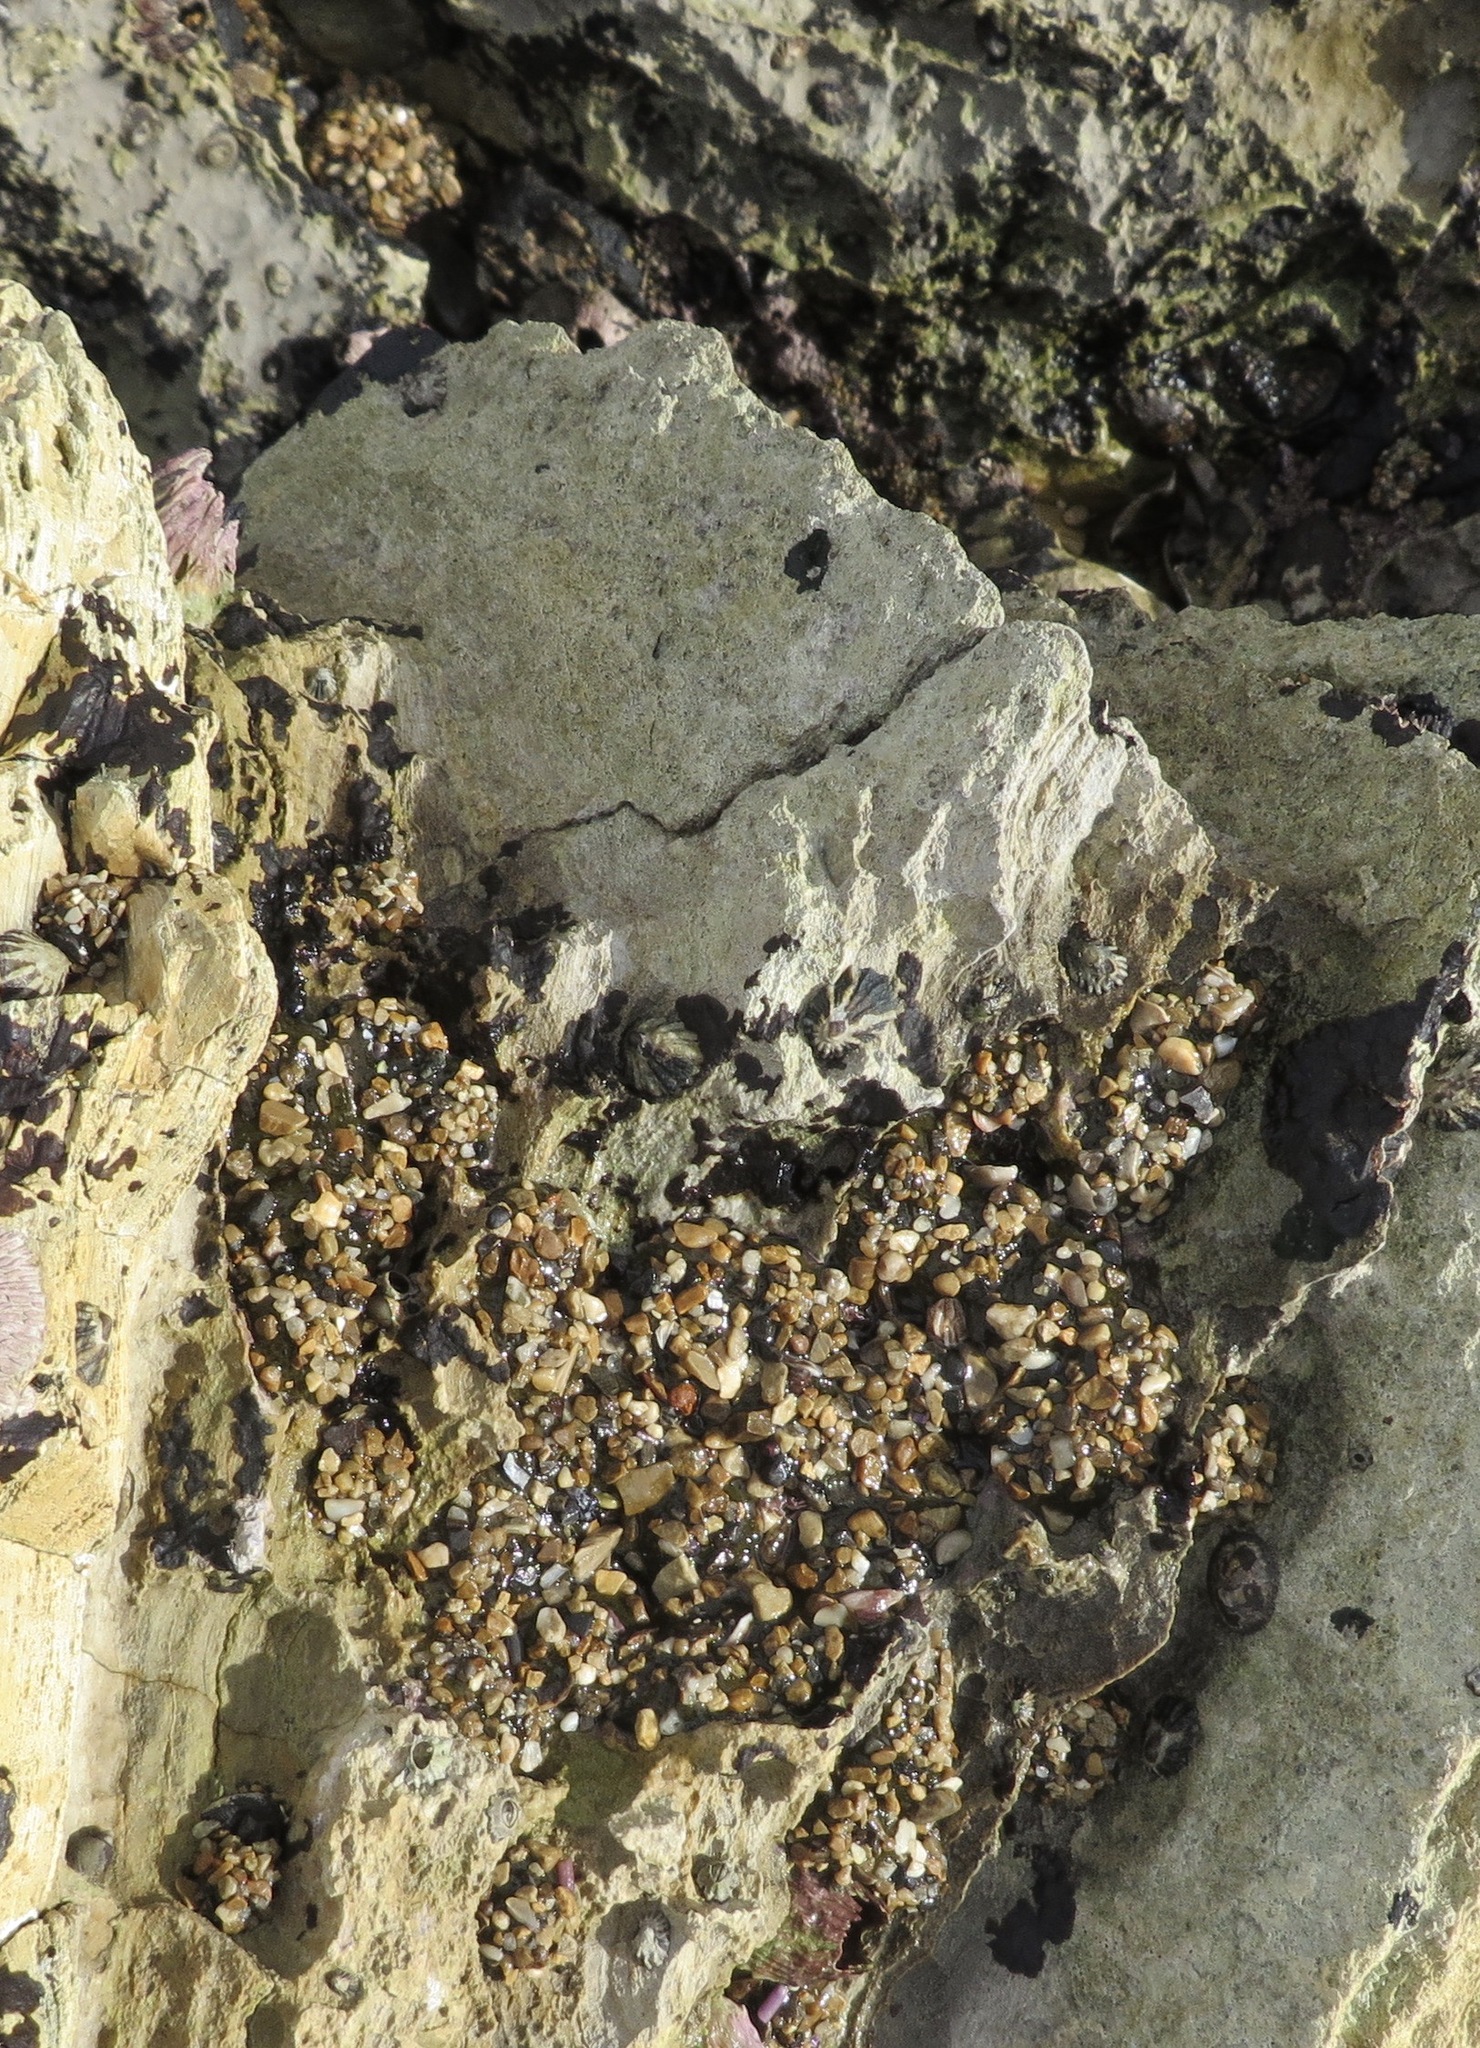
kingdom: Animalia
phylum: Cnidaria
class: Anthozoa
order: Actiniaria
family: Actiniidae
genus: Anthopleura
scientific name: Anthopleura elegantissima
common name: Clonal anemone
